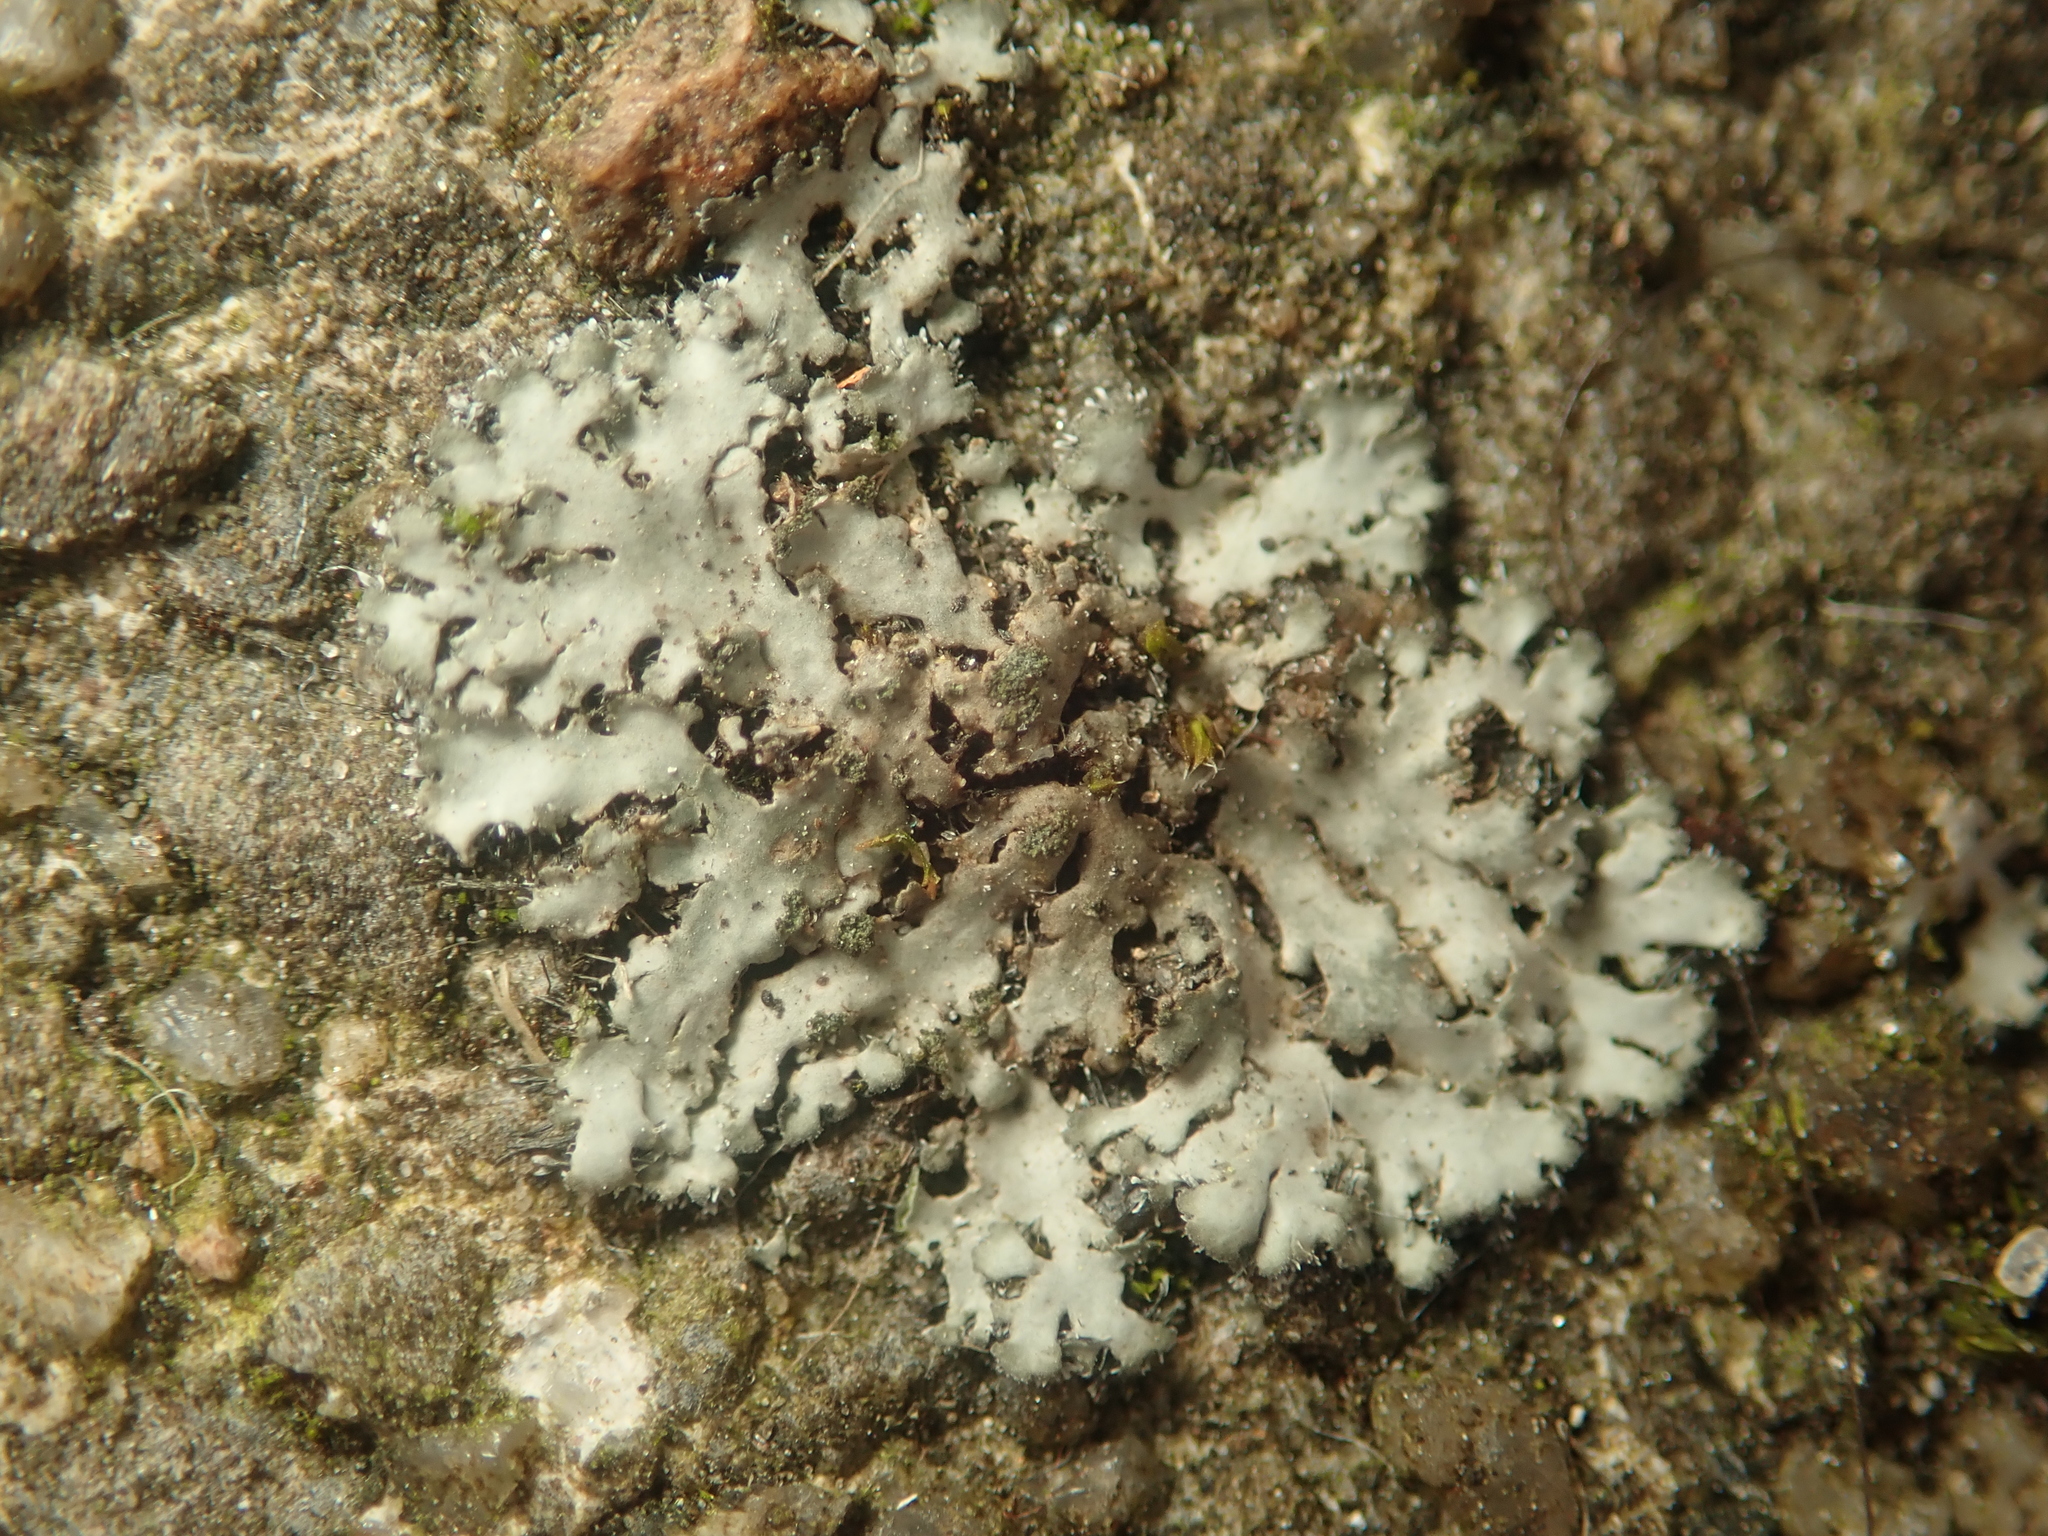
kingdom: Fungi
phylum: Ascomycota
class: Lecanoromycetes
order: Caliciales
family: Physciaceae
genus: Phaeophyscia
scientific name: Phaeophyscia orbicularis
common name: Mealy shadow lichen
